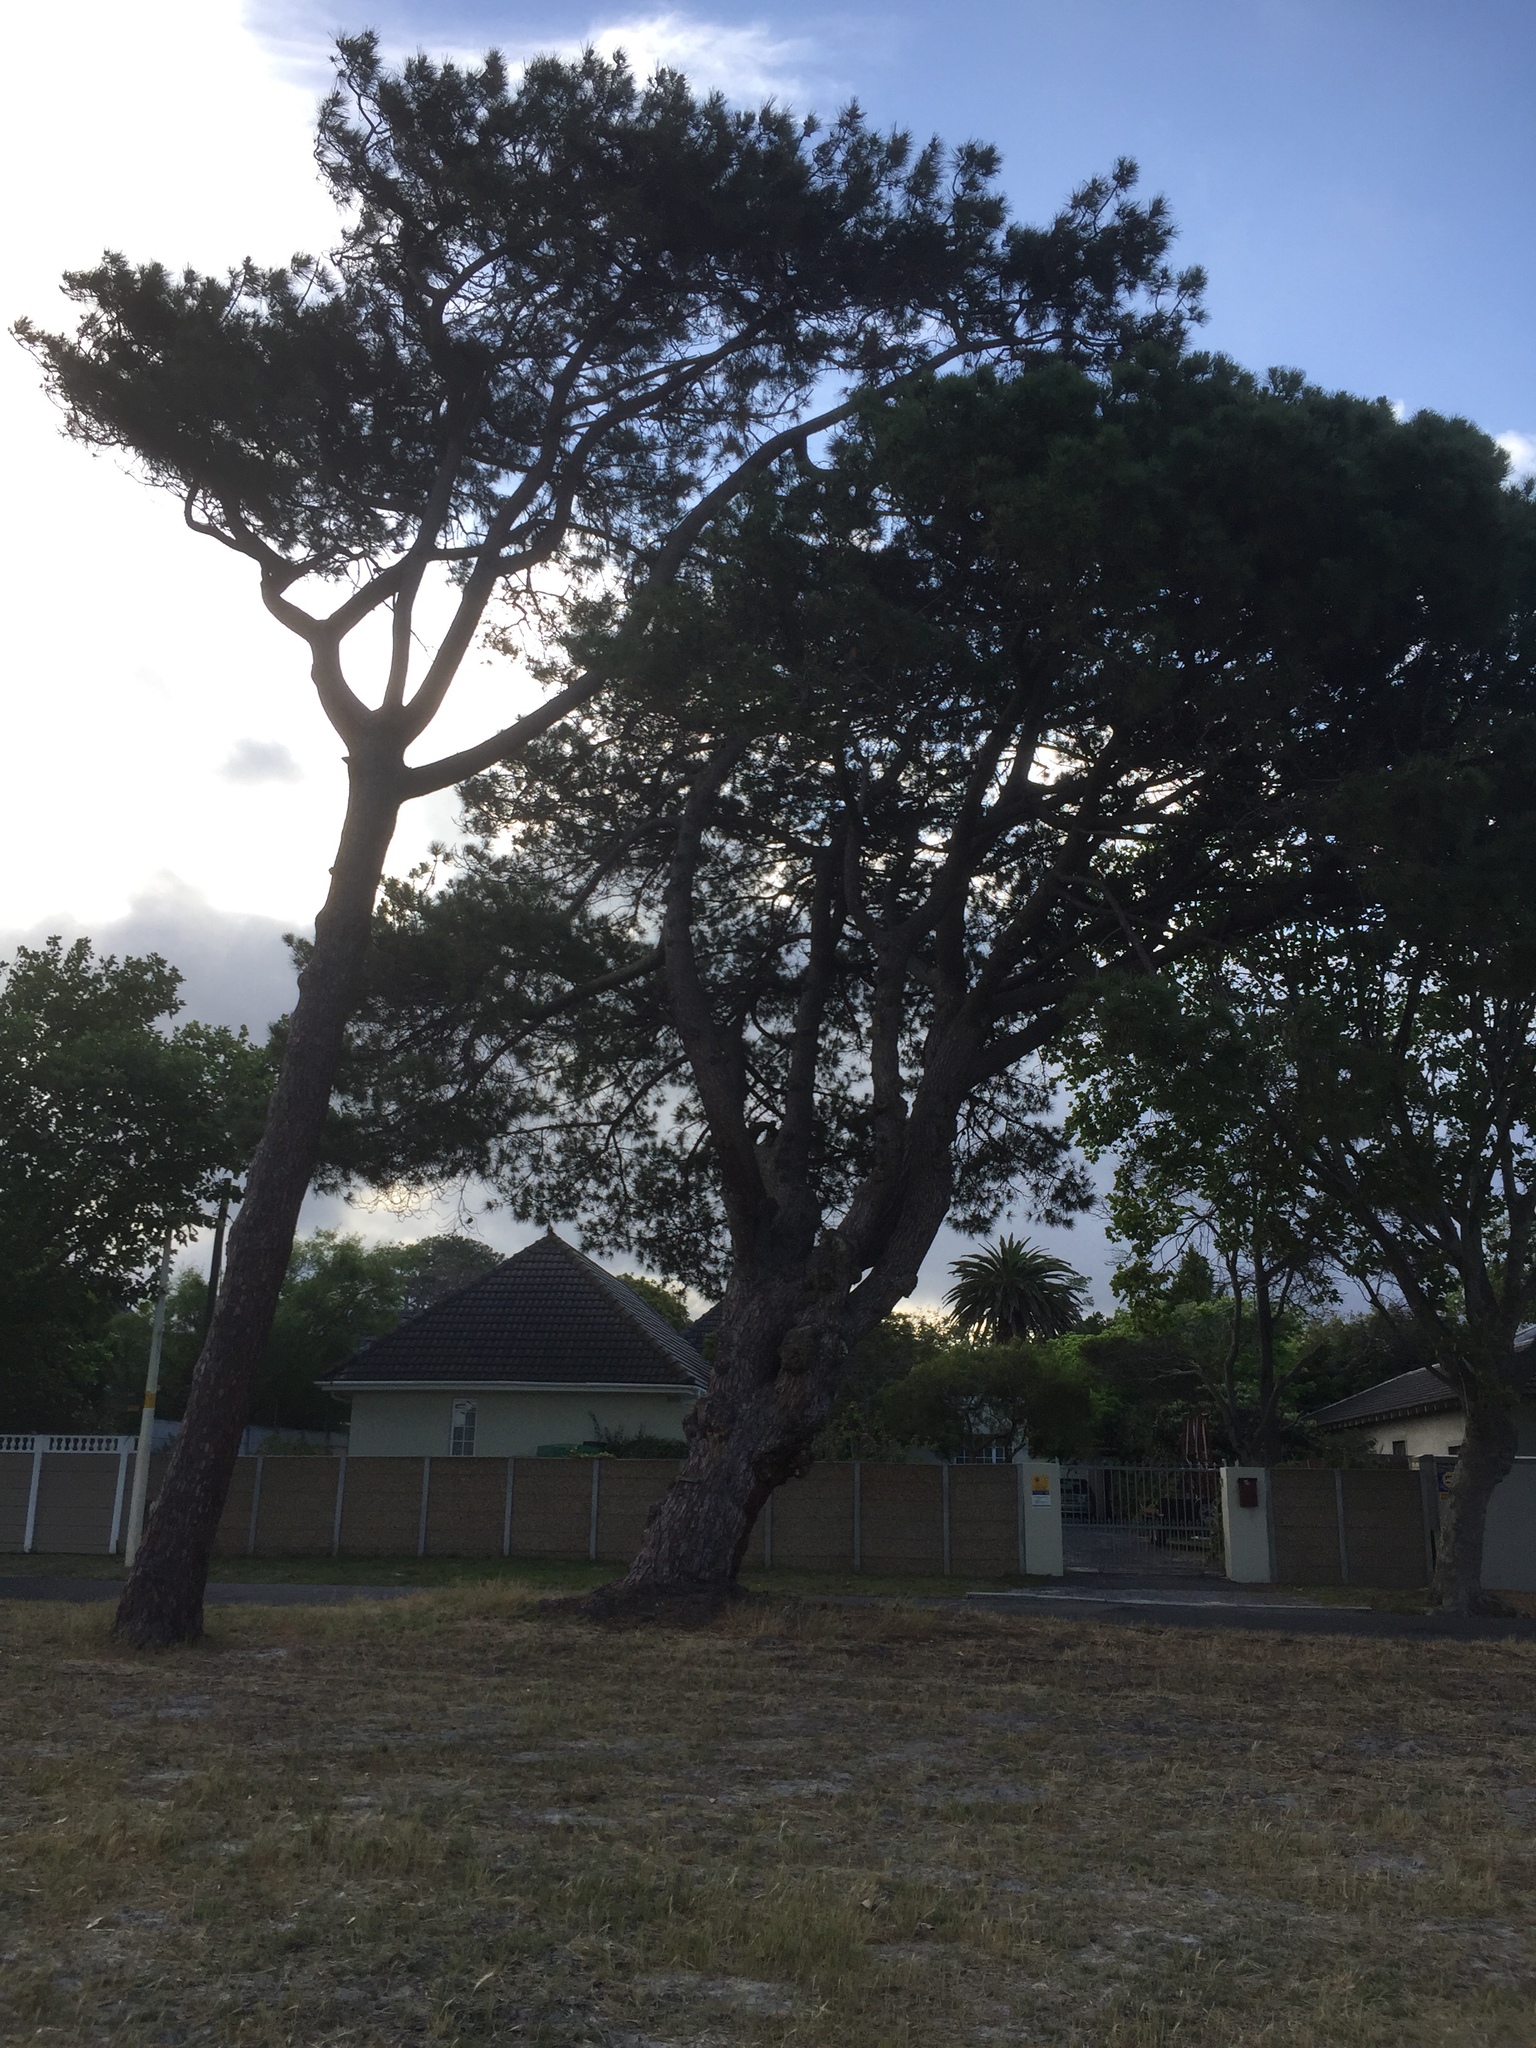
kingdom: Plantae
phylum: Tracheophyta
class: Pinopsida
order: Pinales
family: Pinaceae
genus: Pinus
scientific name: Pinus pinaster
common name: Maritime pine
